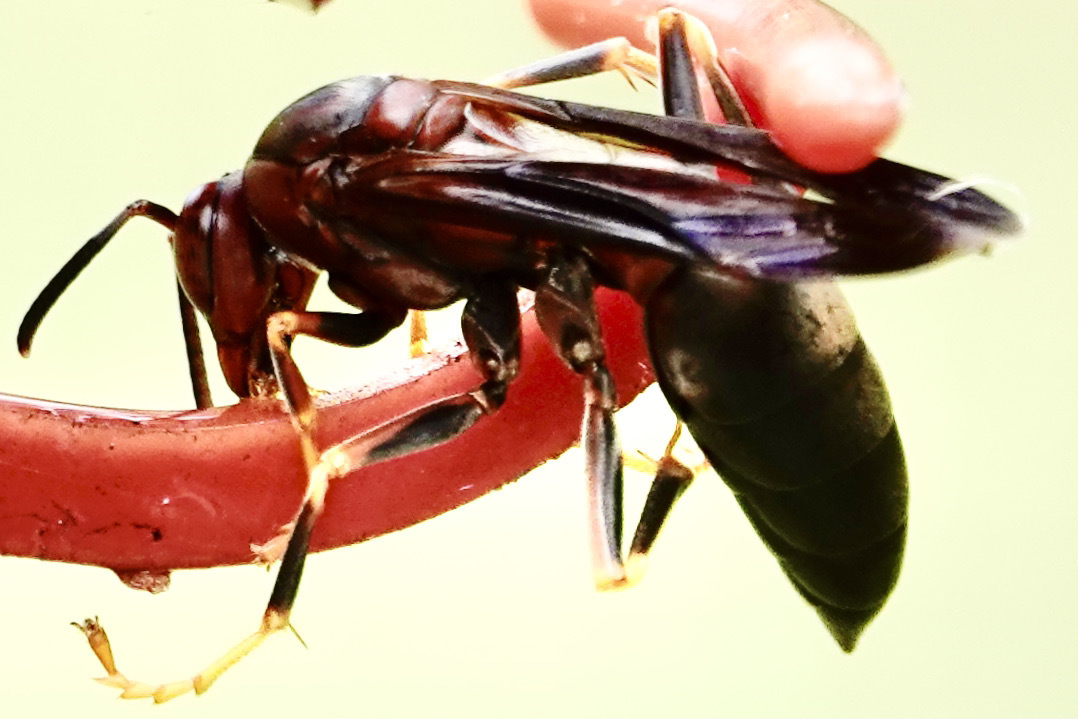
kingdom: Animalia
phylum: Arthropoda
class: Insecta
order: Hymenoptera
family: Eumenidae
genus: Polistes
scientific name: Polistes metricus
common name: Metric paper wasp
